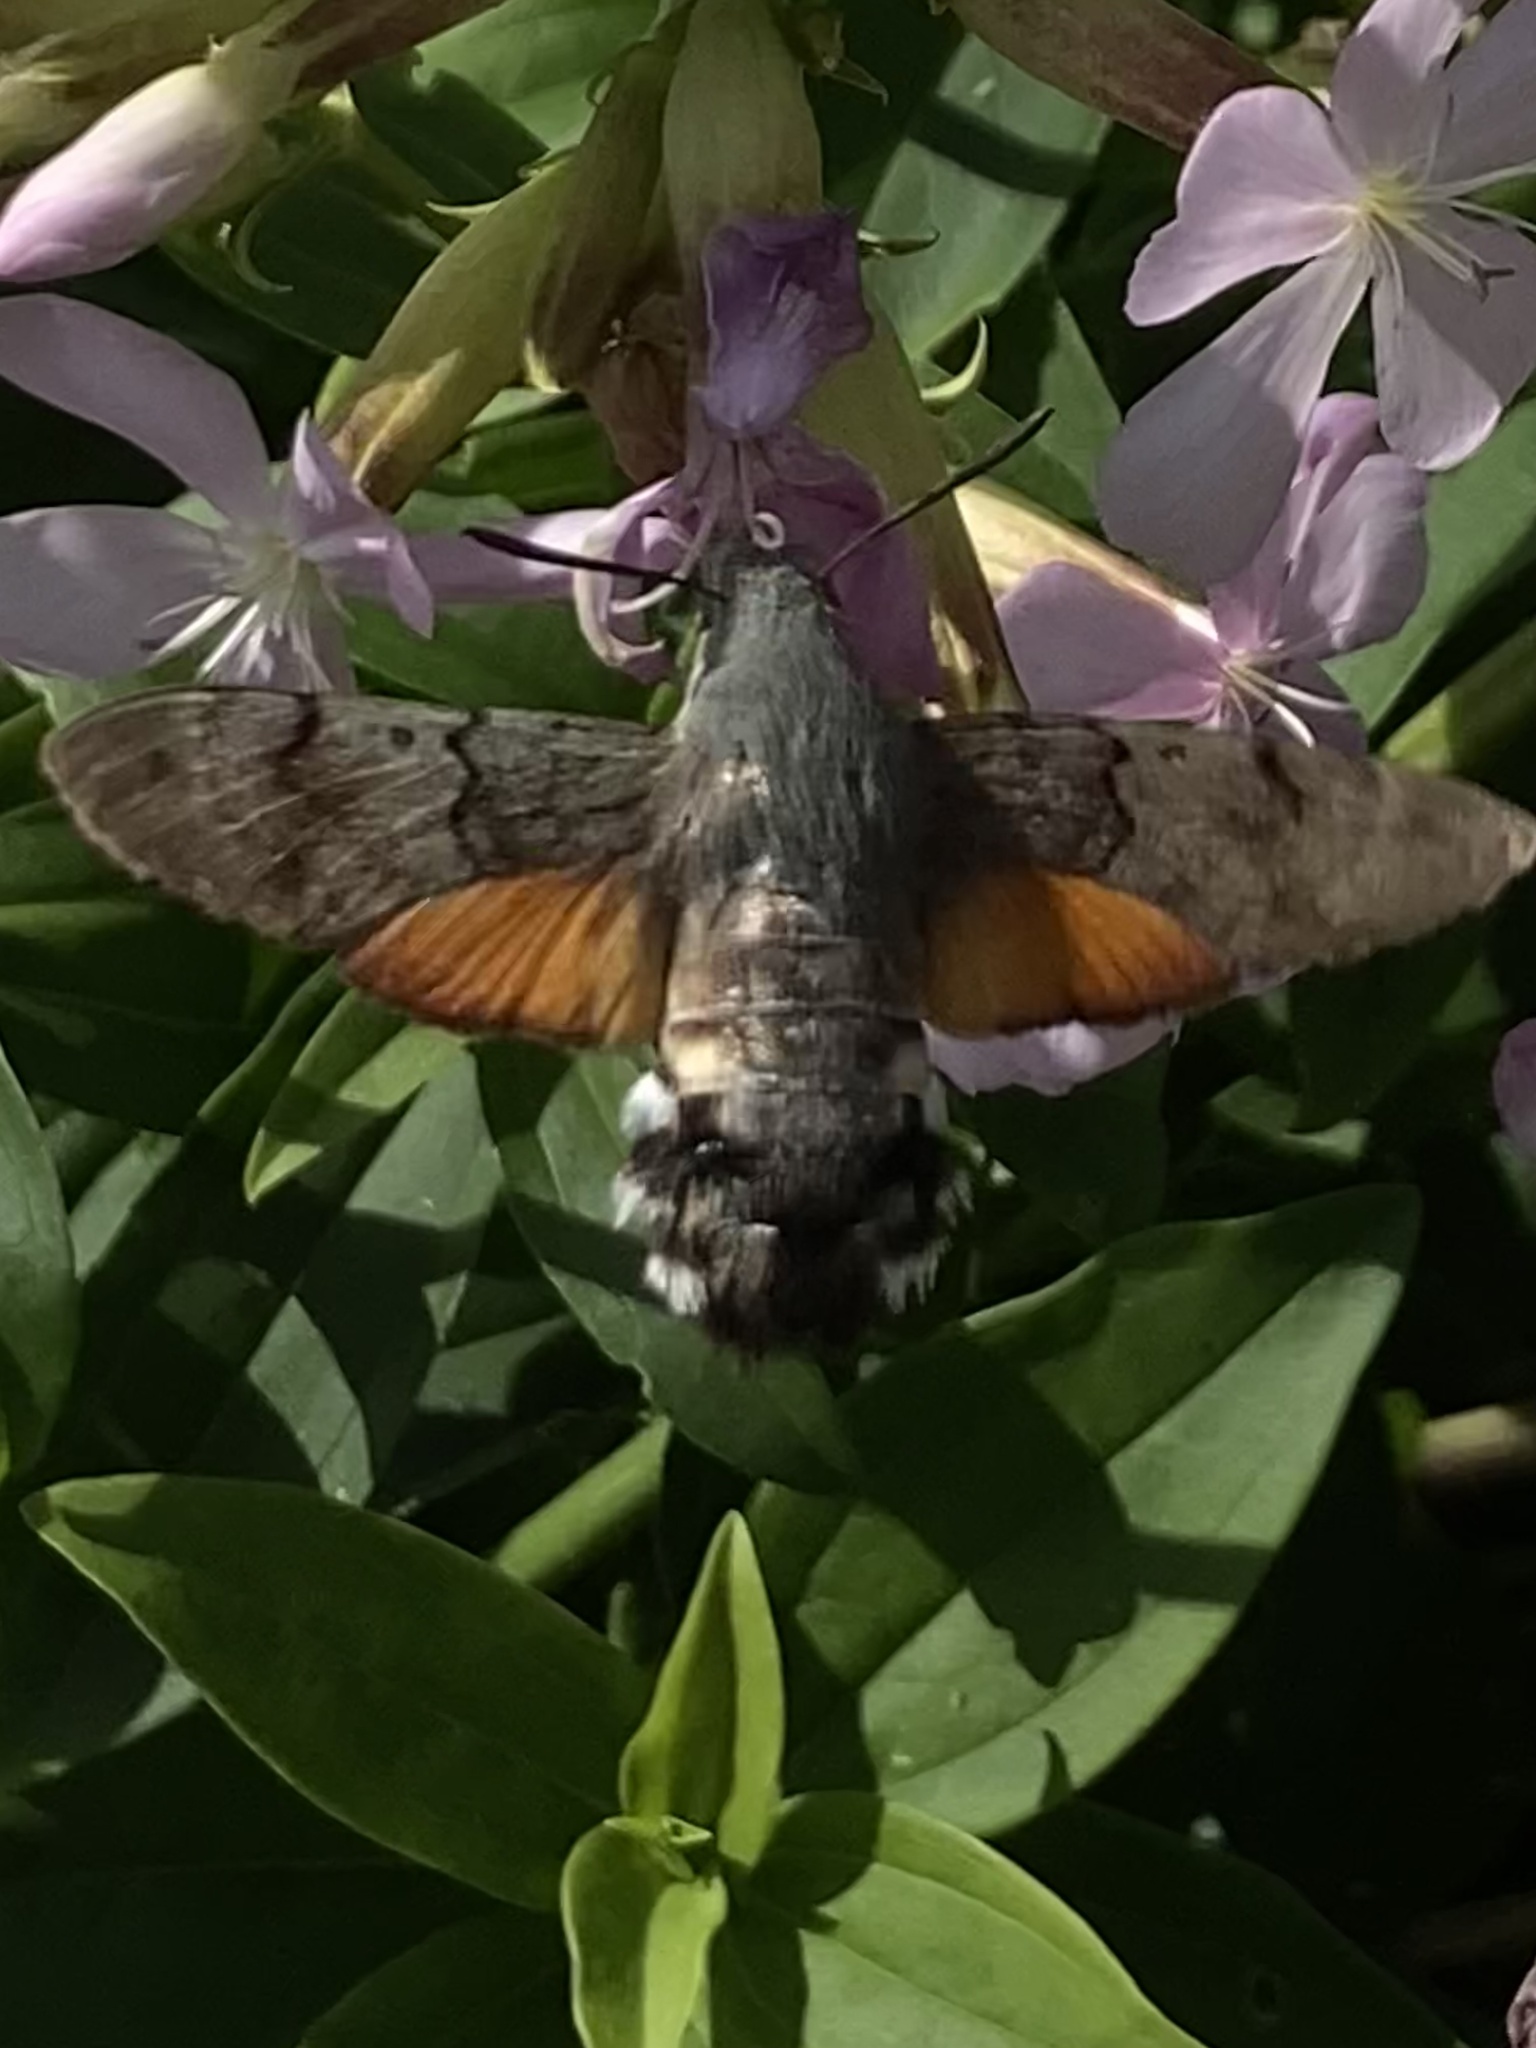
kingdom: Animalia
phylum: Arthropoda
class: Insecta
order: Lepidoptera
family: Sphingidae
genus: Macroglossum
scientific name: Macroglossum stellatarum
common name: Humming-bird hawk-moth
